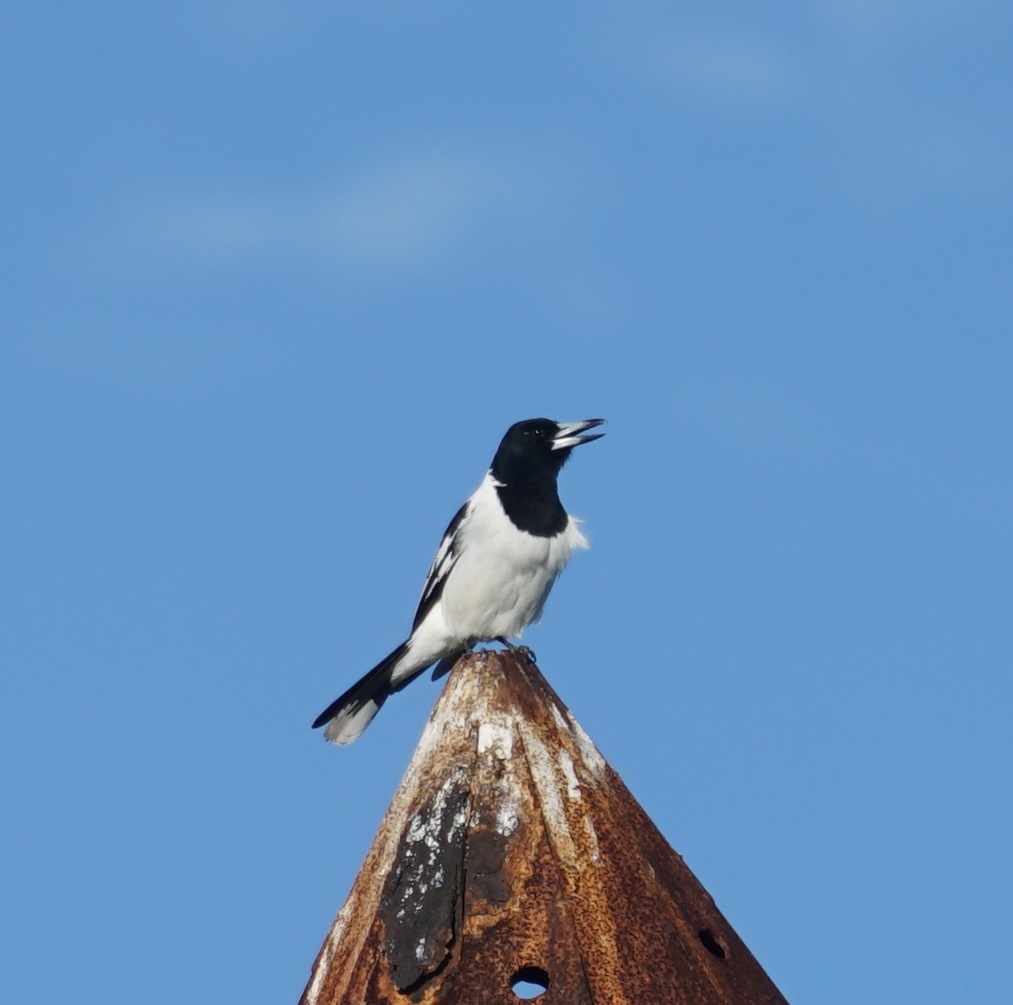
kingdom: Animalia
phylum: Chordata
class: Aves
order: Passeriformes
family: Cracticidae
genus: Cracticus
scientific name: Cracticus nigrogularis
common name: Pied butcherbird
